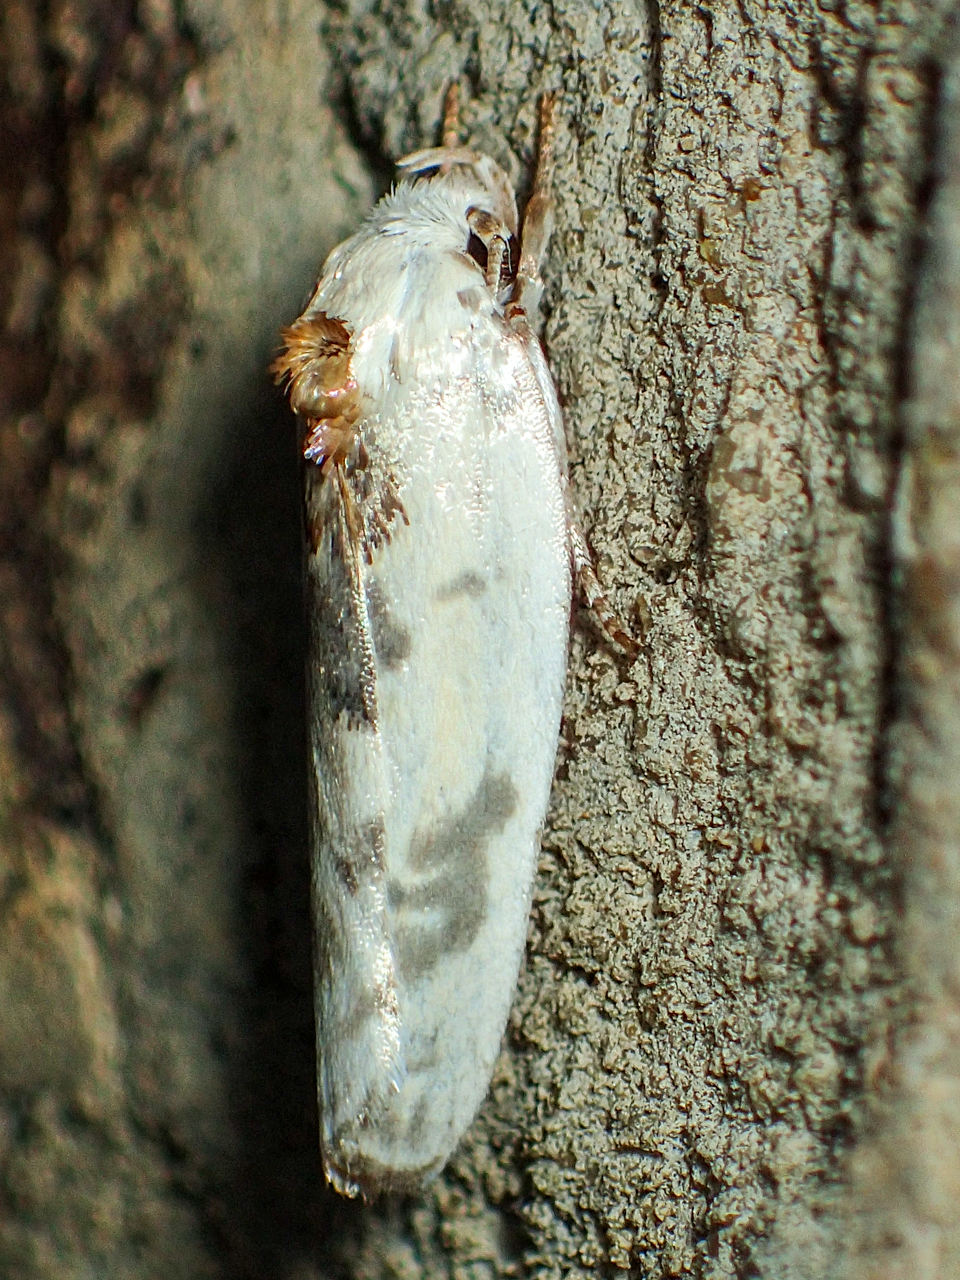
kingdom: Animalia
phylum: Arthropoda
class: Insecta
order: Lepidoptera
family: Depressariidae
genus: Antaeotricha
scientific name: Antaeotricha schlaegeri
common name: Schlaeger's fruitworm moth
